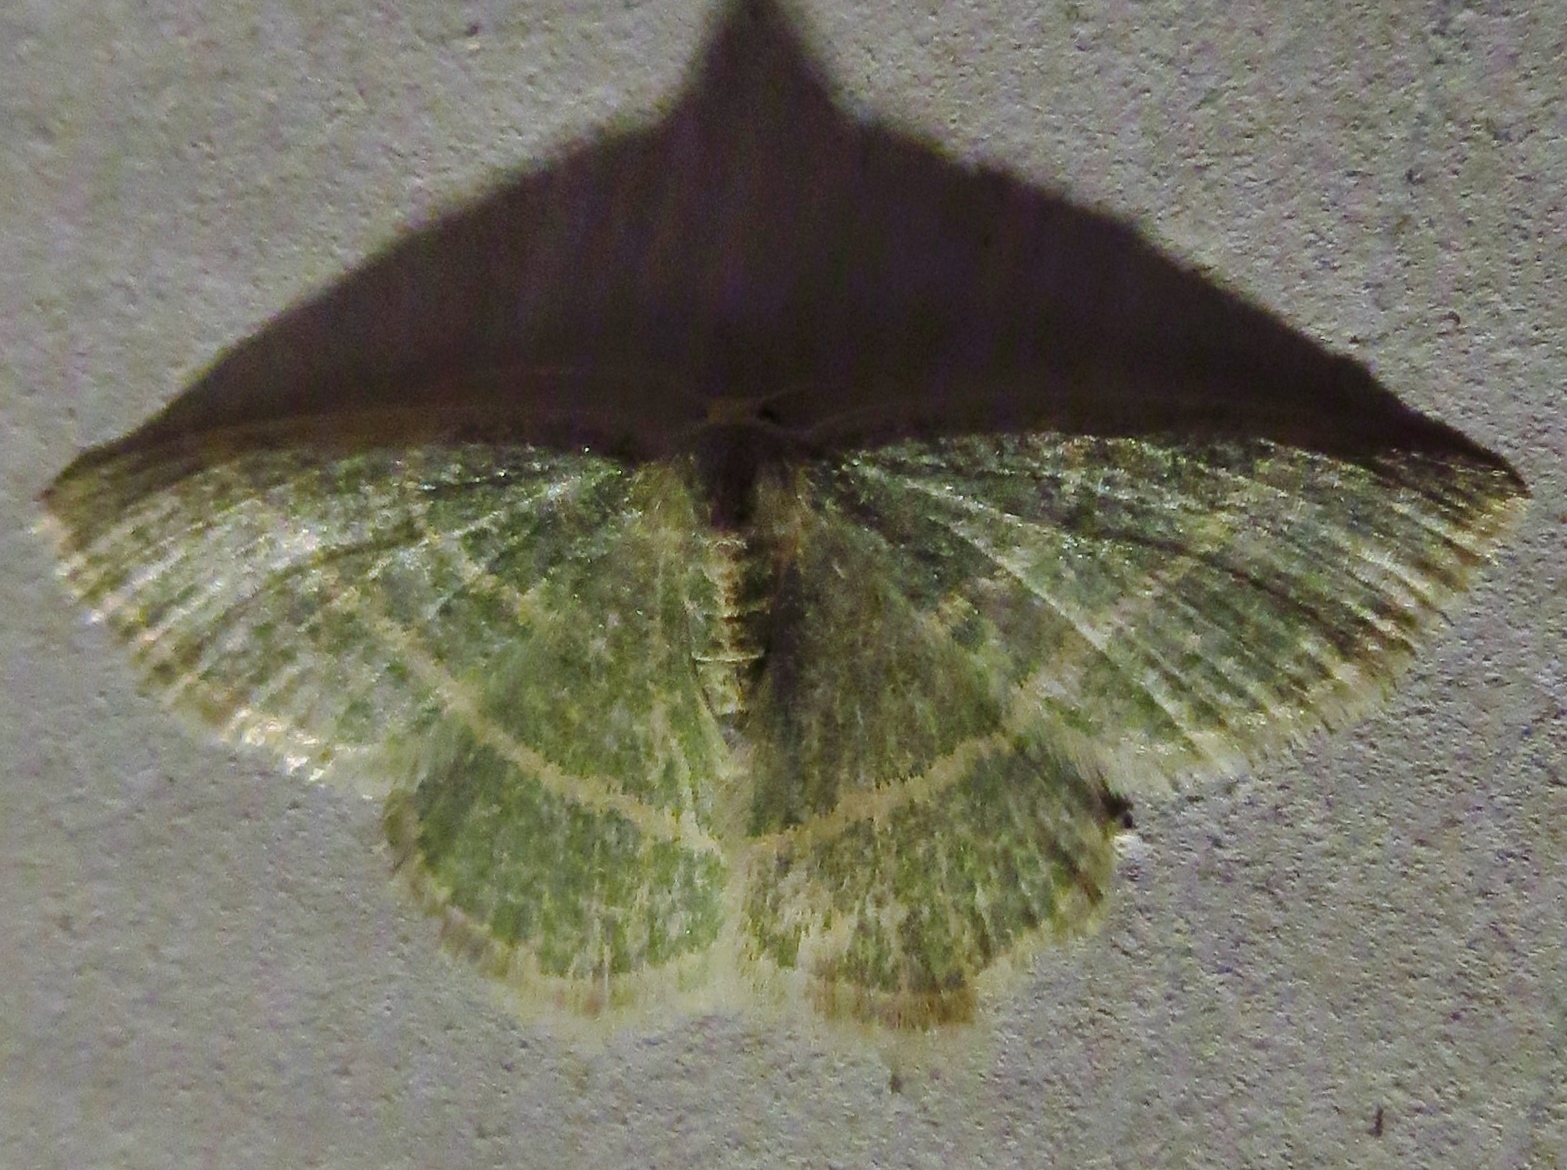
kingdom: Animalia
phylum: Arthropoda
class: Insecta
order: Lepidoptera
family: Geometridae
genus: Chlorochlamys
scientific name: Chlorochlamys chloroleucaria
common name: Blackberry looper
